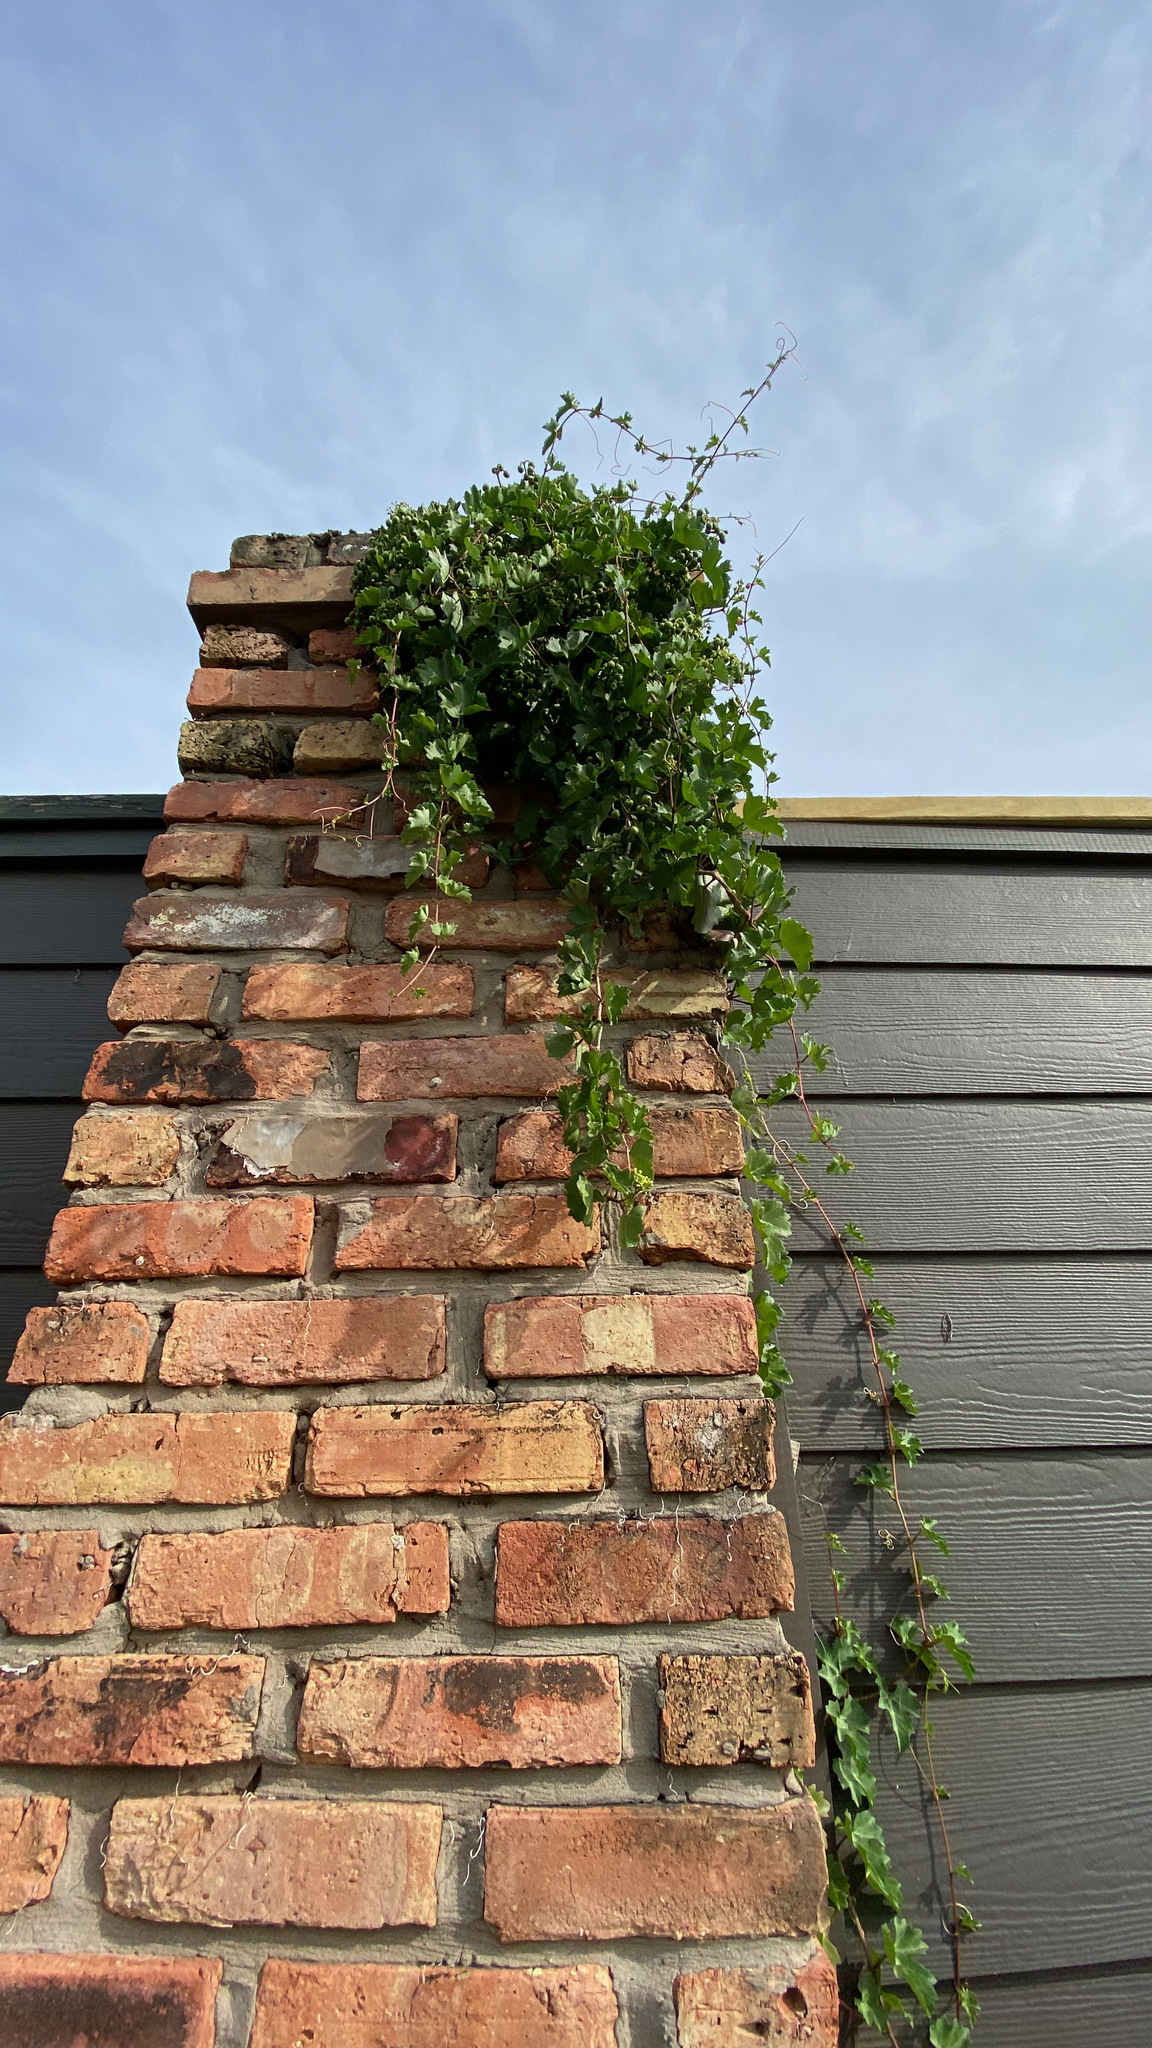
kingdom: Plantae
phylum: Tracheophyta
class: Magnoliopsida
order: Vitales
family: Vitaceae
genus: Cissus
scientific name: Cissus trifoliata
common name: Vine-sorrel
